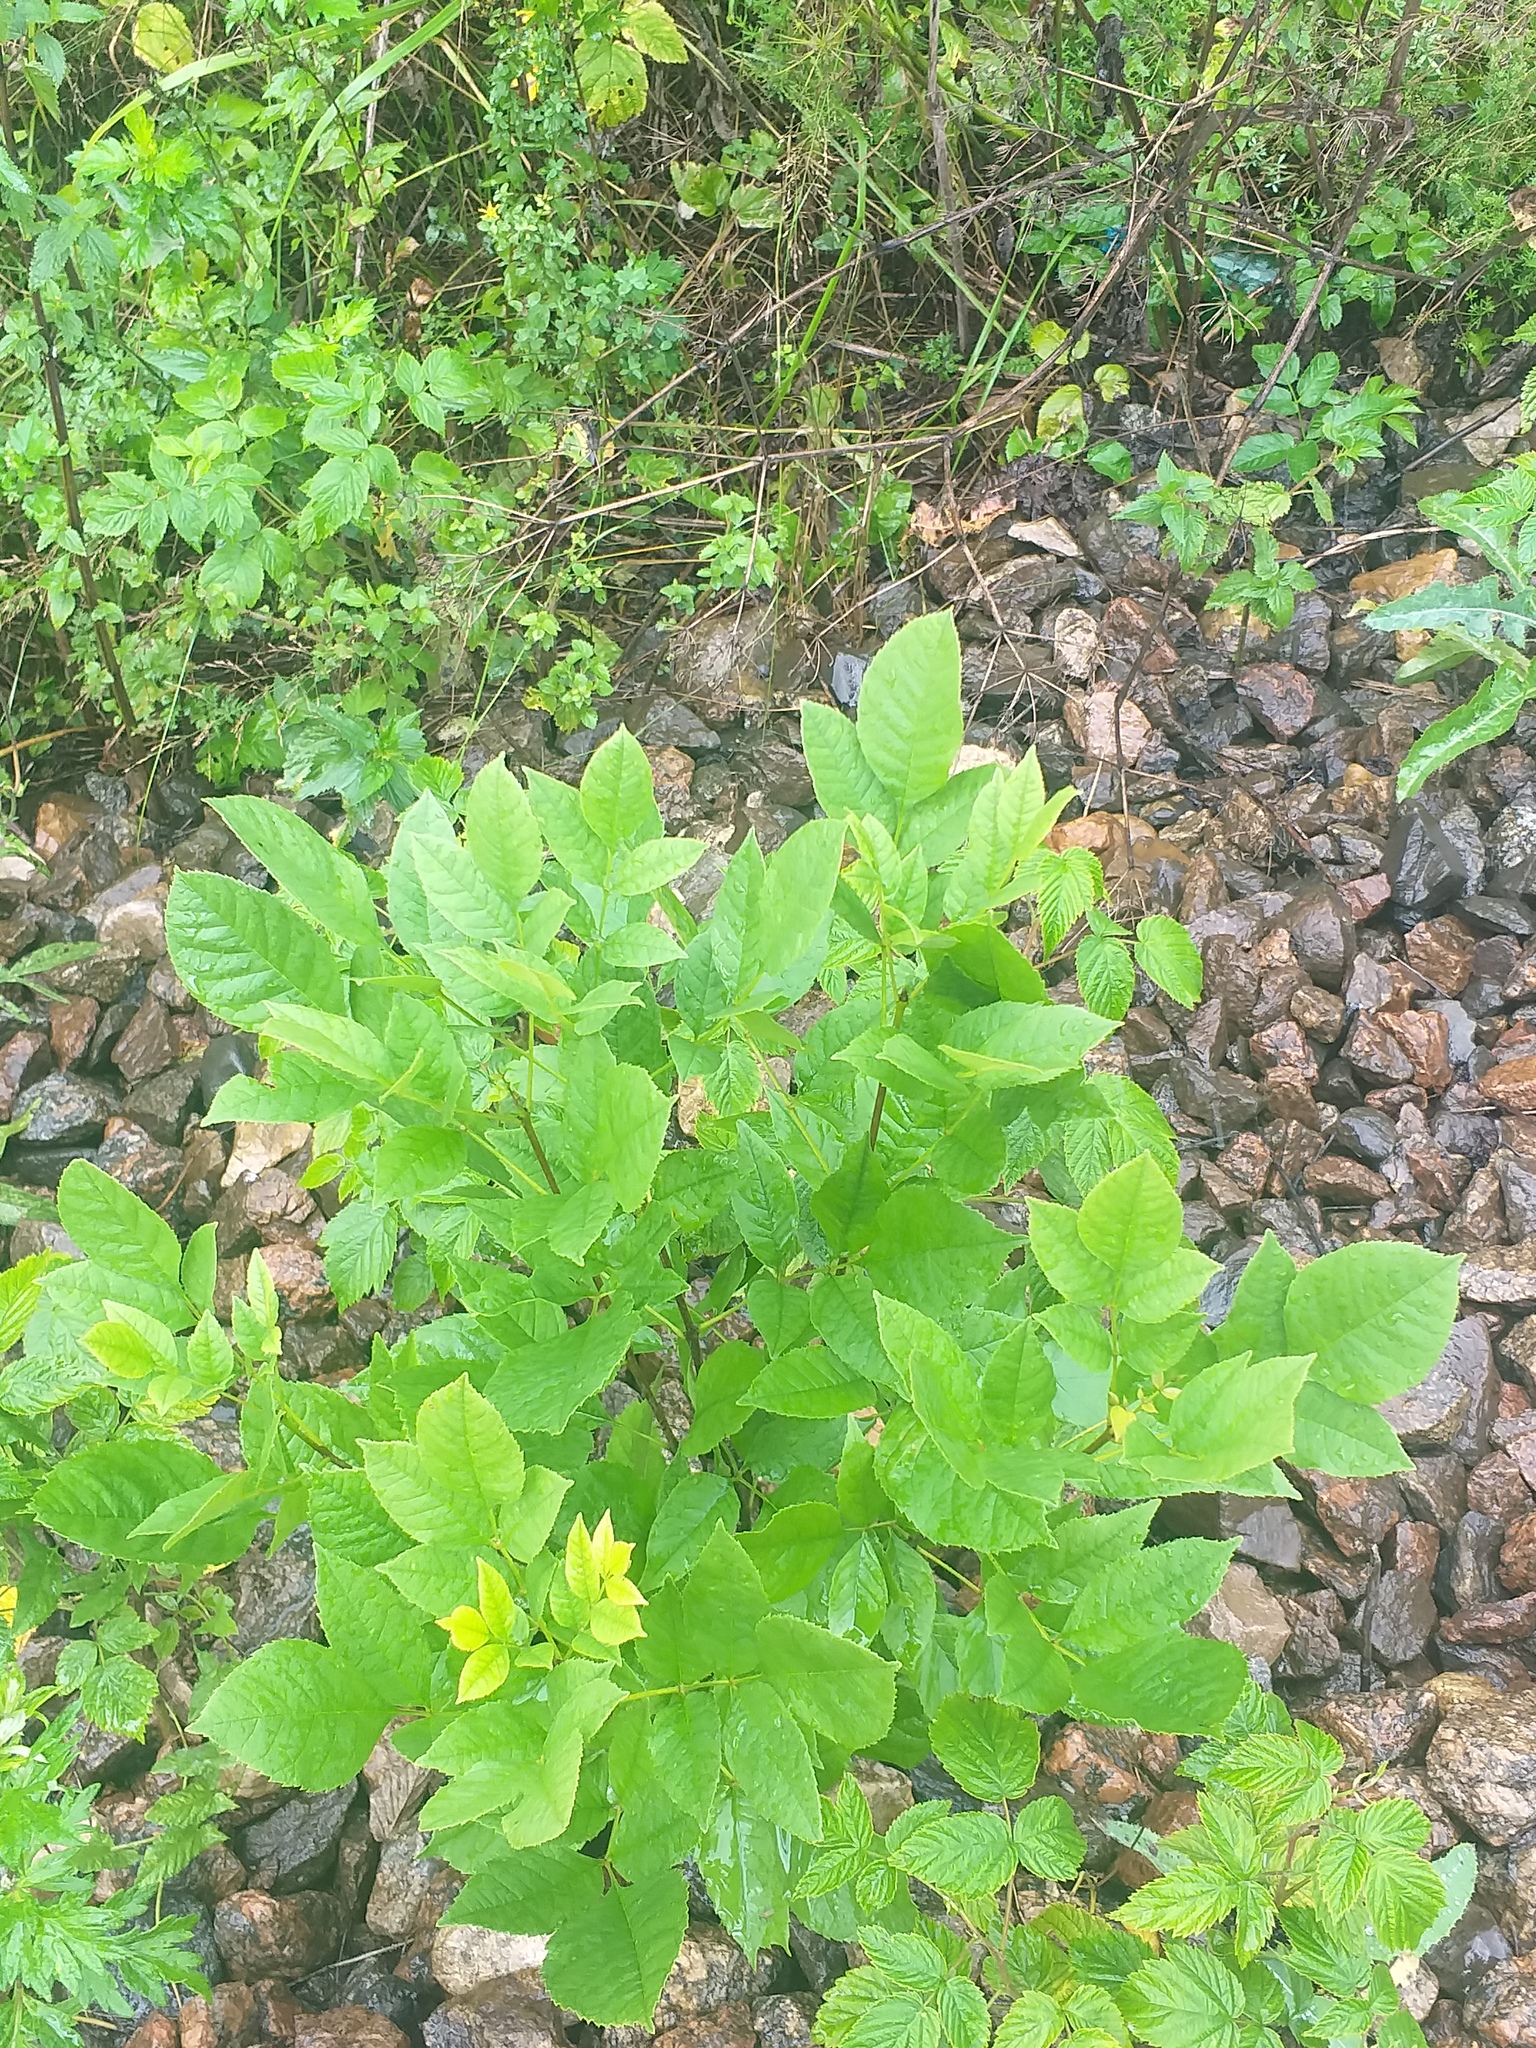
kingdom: Plantae
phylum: Tracheophyta
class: Magnoliopsida
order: Lamiales
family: Oleaceae
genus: Fraxinus
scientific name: Fraxinus pennsylvanica
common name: Green ash
